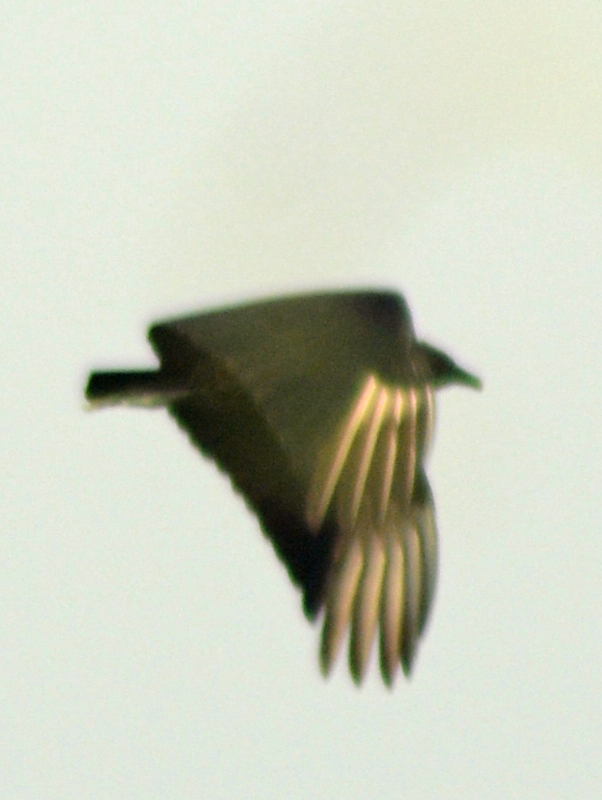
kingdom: Animalia
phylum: Chordata
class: Aves
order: Accipitriformes
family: Cathartidae
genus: Coragyps
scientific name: Coragyps atratus
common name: Black vulture
